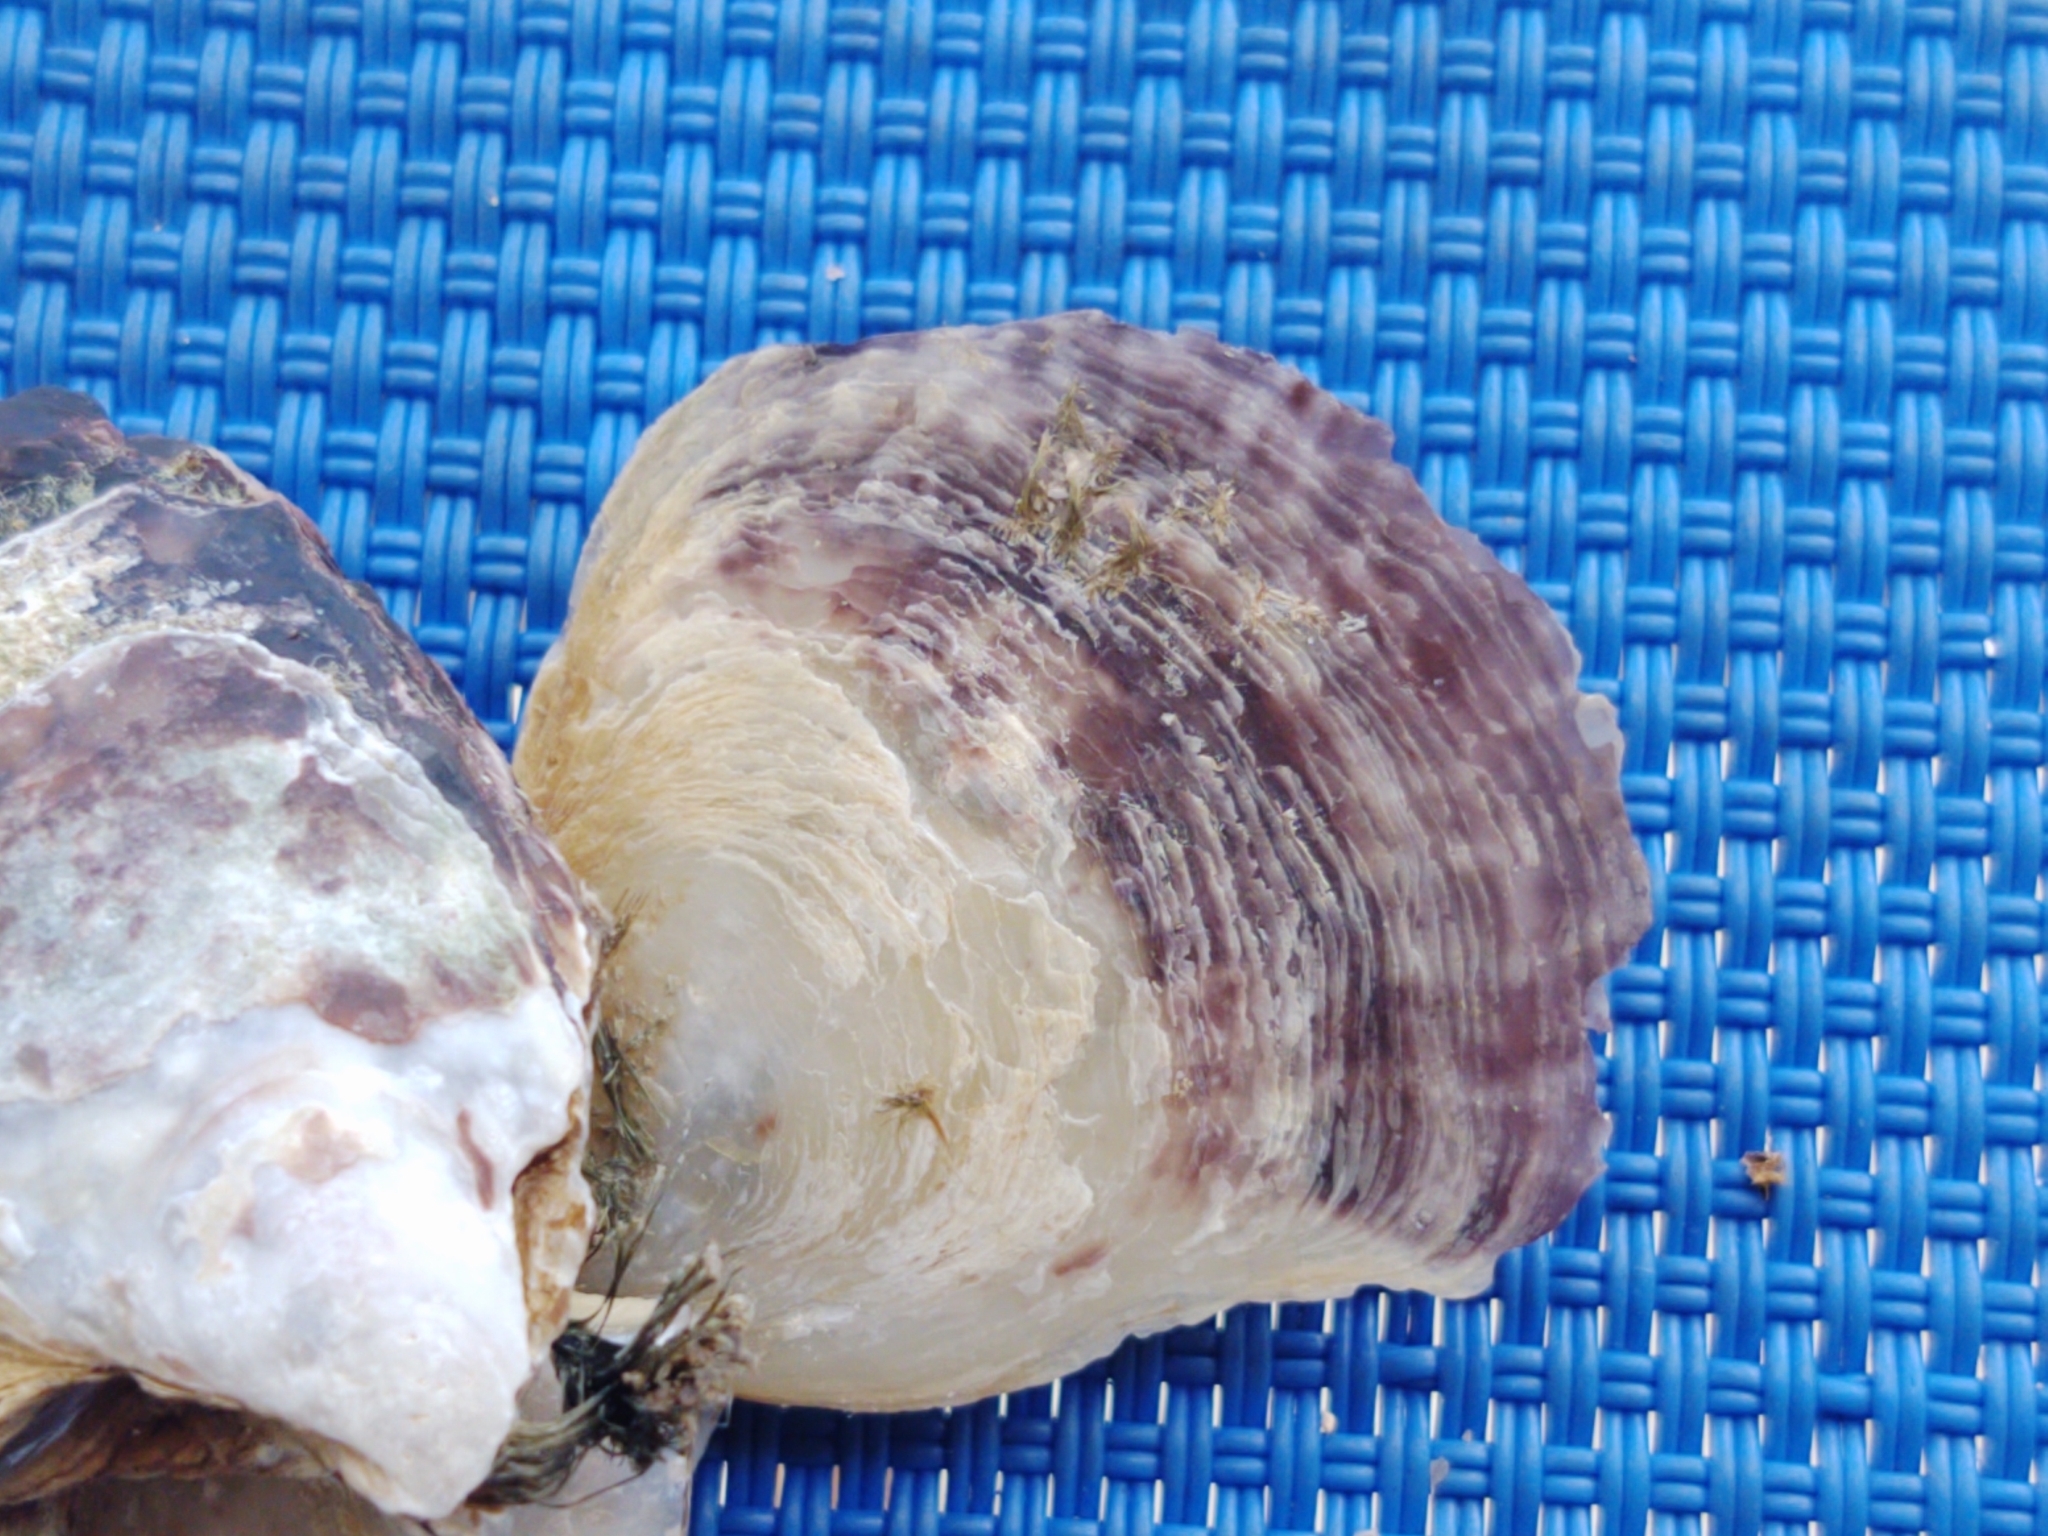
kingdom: Animalia
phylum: Mollusca
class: Bivalvia
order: Ostreida
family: Isognomonidae
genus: Isognomon
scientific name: Isognomon alatus
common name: Flat tree-oyster
